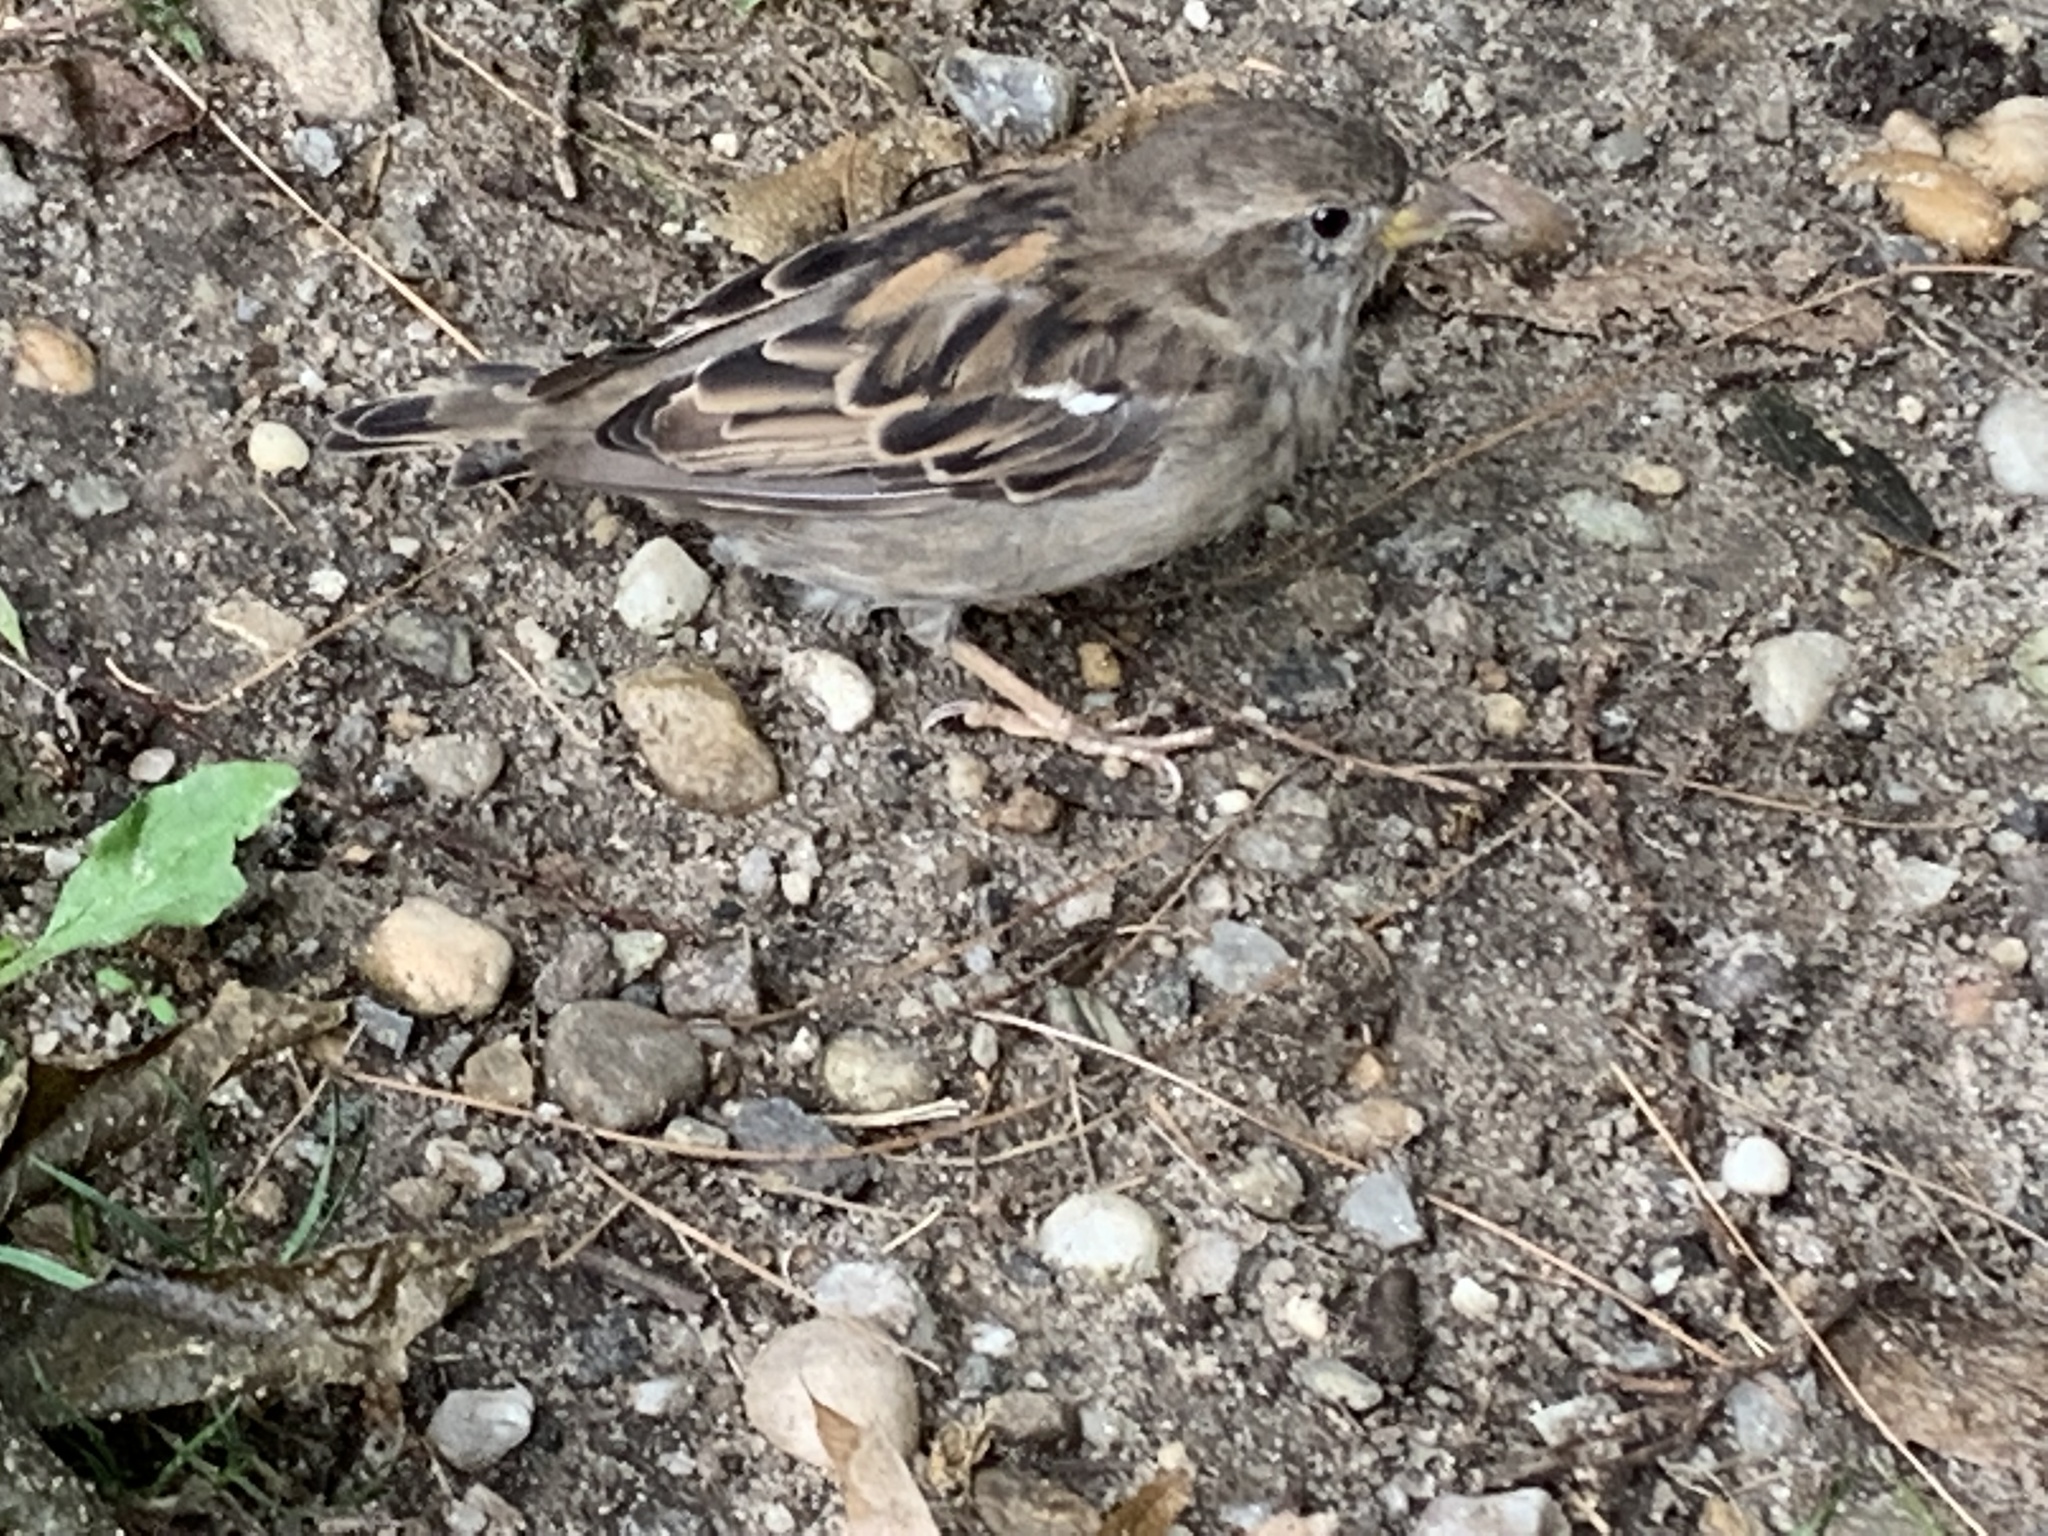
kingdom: Animalia
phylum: Chordata
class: Aves
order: Passeriformes
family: Passeridae
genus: Passer
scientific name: Passer domesticus
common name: House sparrow
